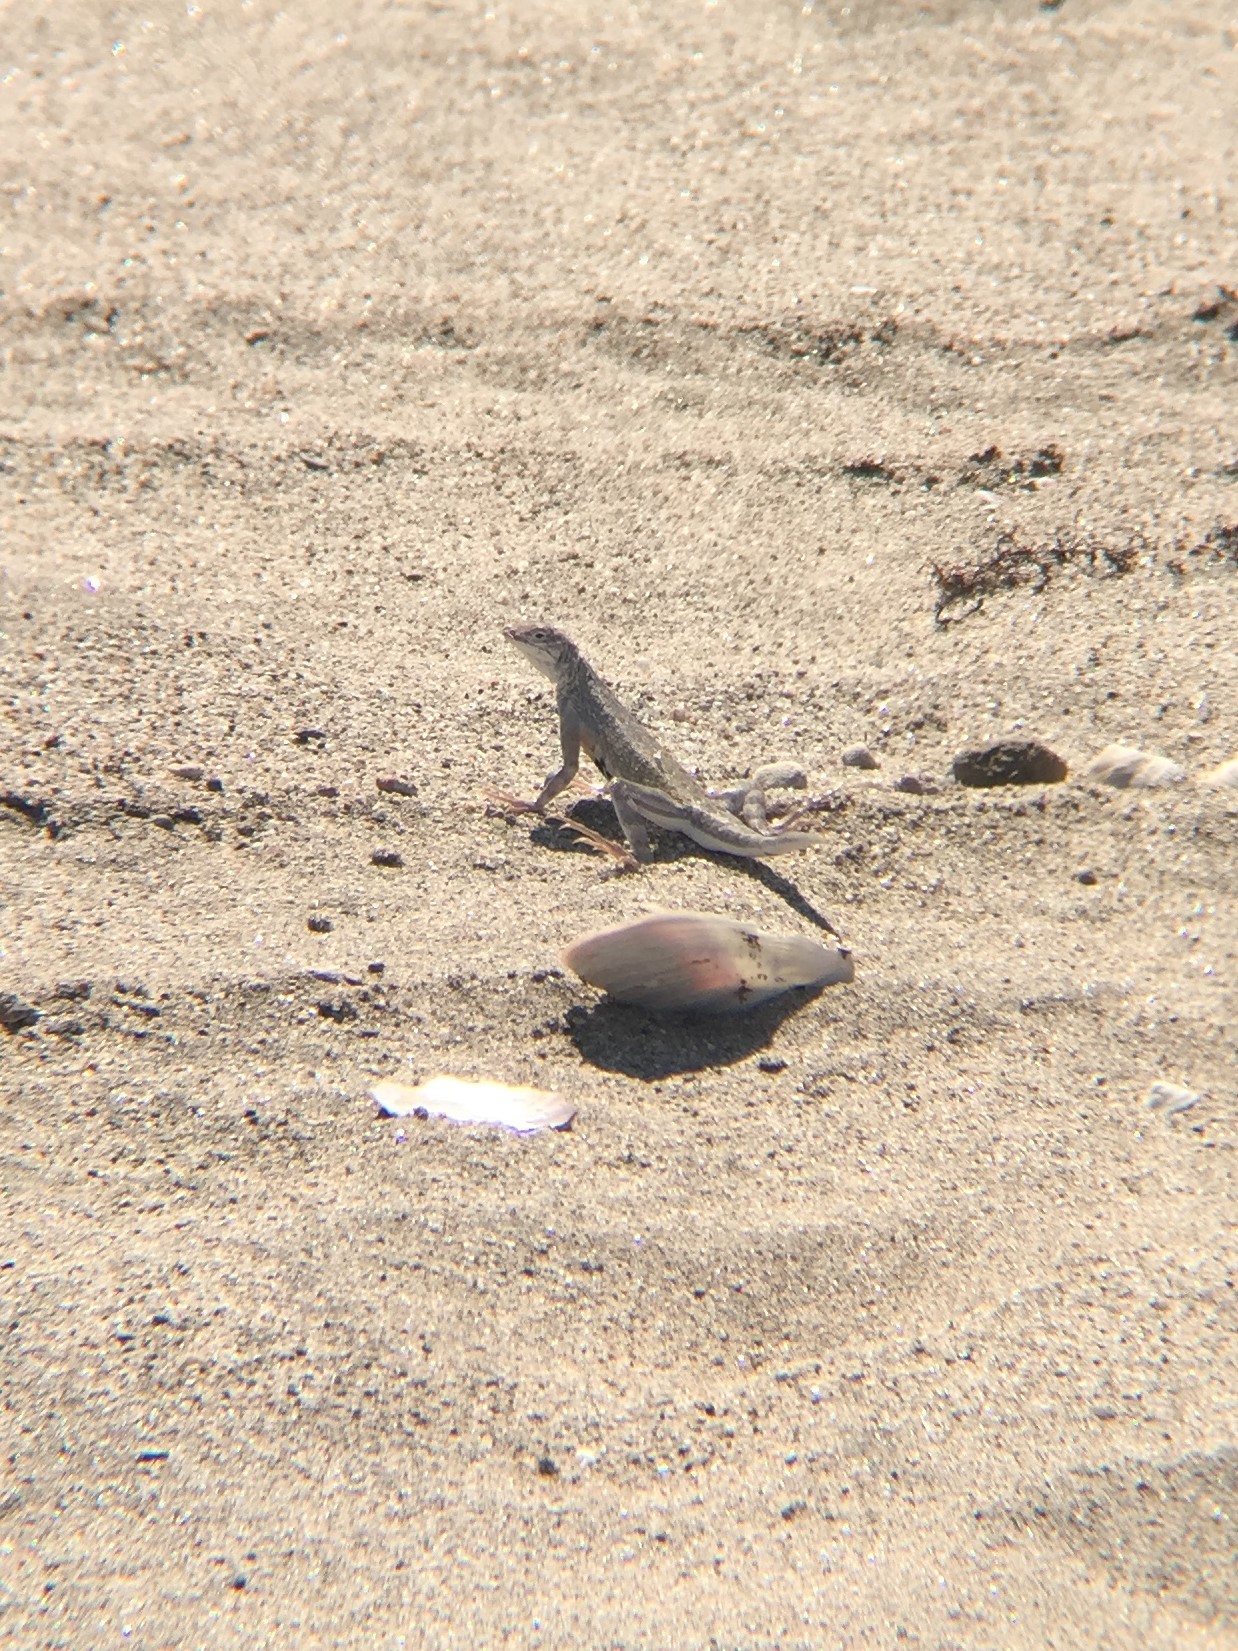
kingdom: Animalia
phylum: Chordata
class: Squamata
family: Phrynosomatidae
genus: Callisaurus
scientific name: Callisaurus draconoides
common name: Zebra-tailed lizard
